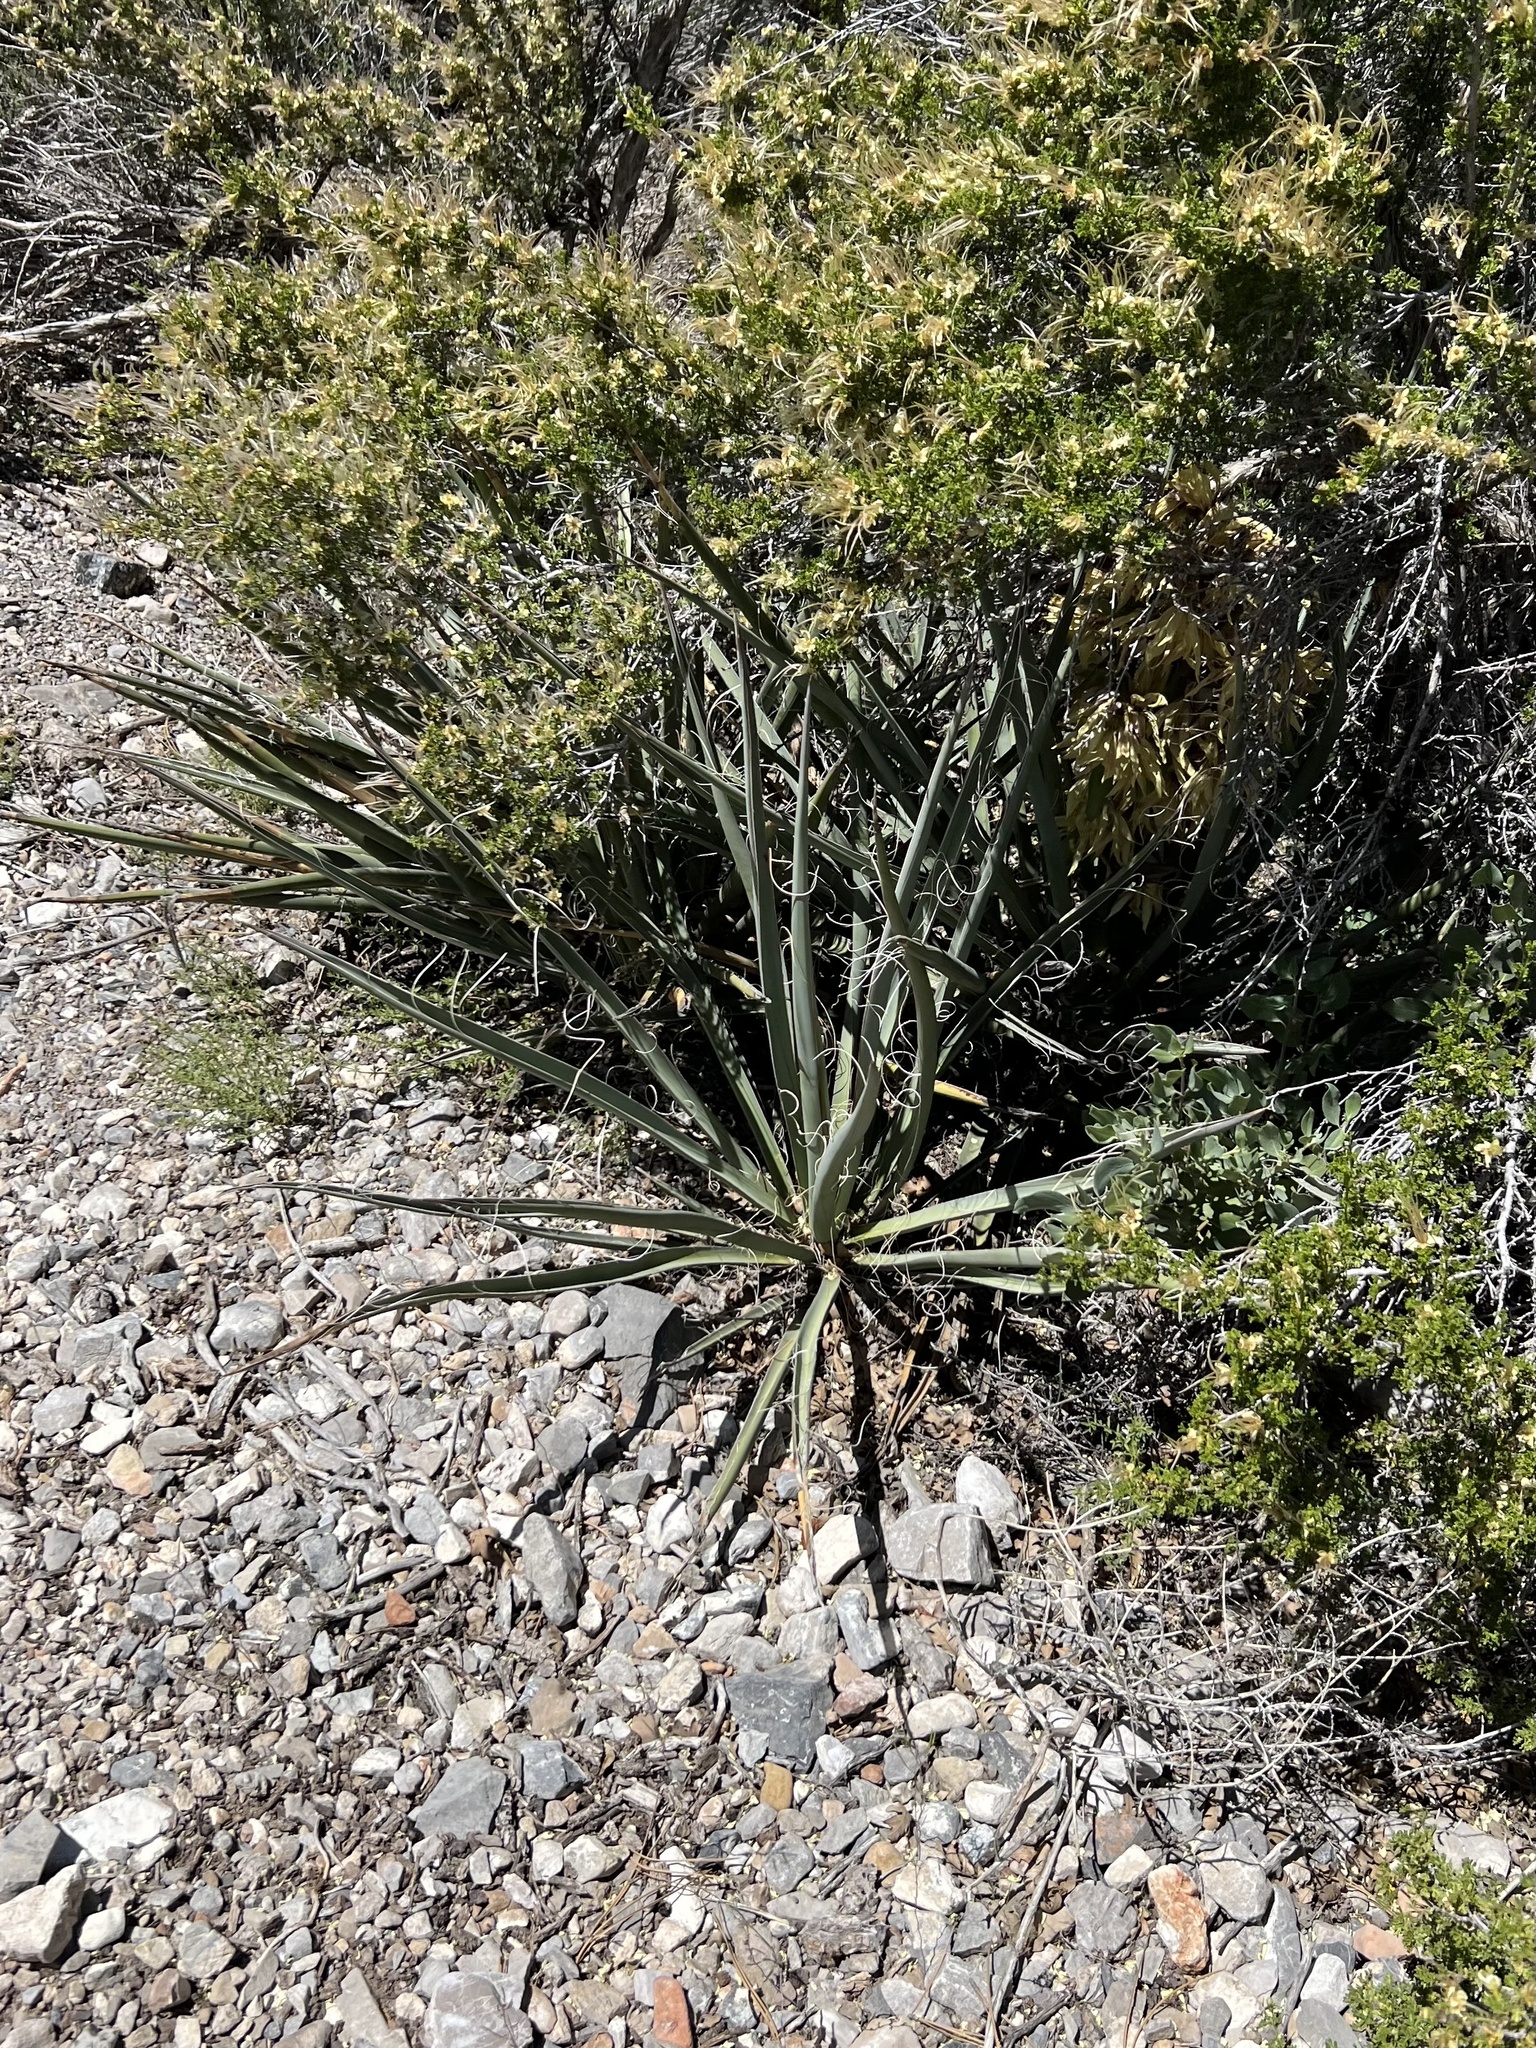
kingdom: Plantae
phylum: Tracheophyta
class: Liliopsida
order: Asparagales
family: Asparagaceae
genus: Yucca
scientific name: Yucca baccata
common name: Banana yucca
